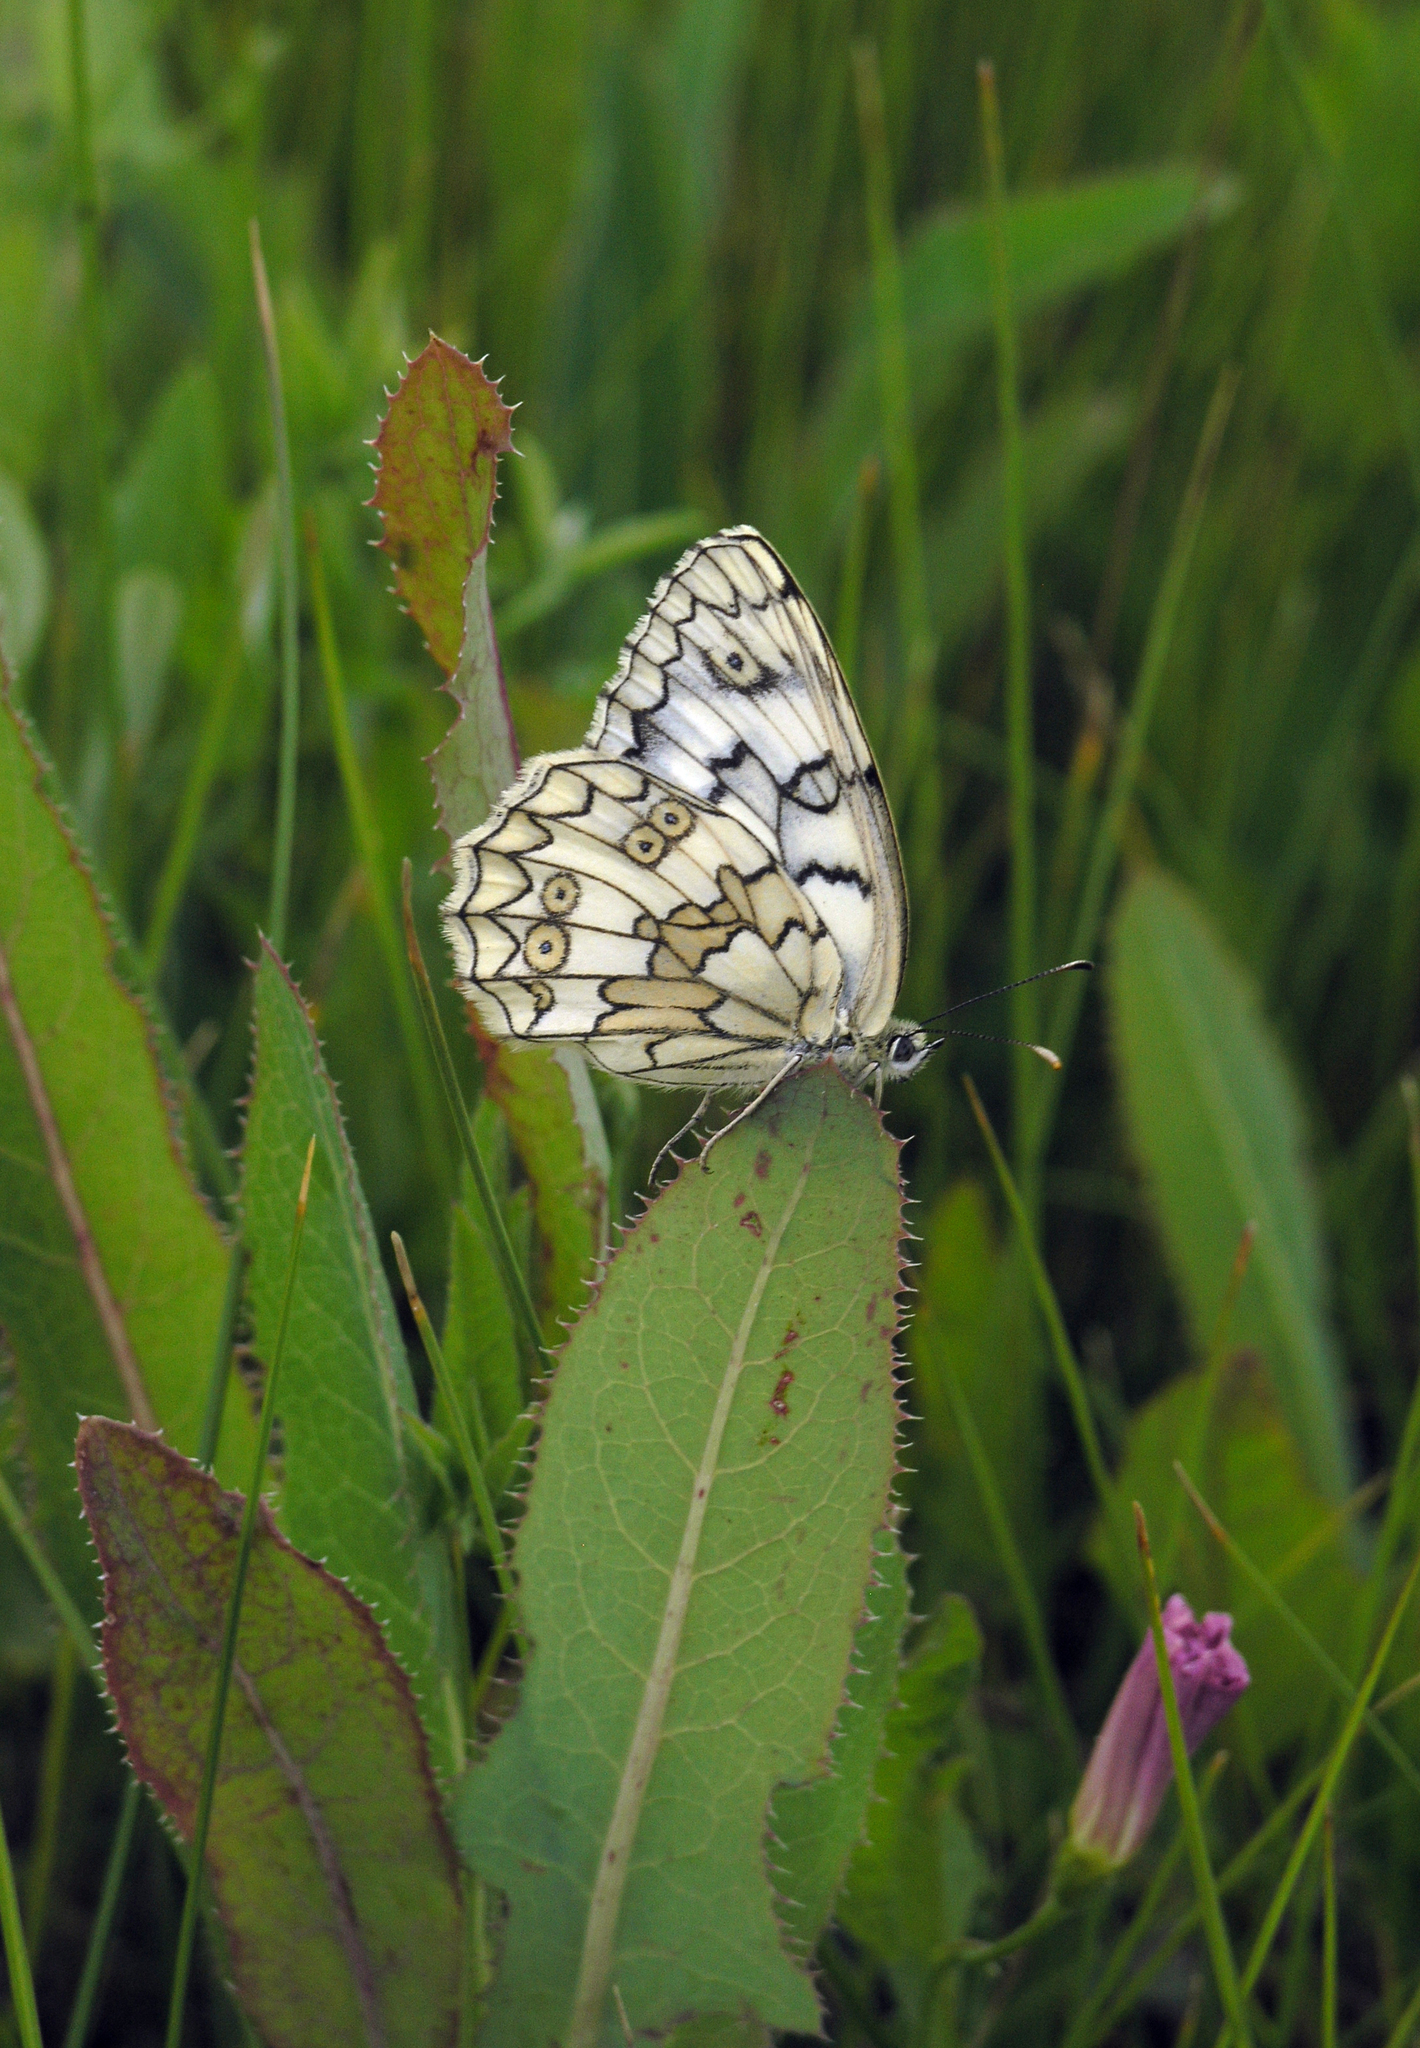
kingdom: Animalia
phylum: Arthropoda
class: Insecta
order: Lepidoptera
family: Nymphalidae
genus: Melanargia
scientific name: Melanargia japygia
